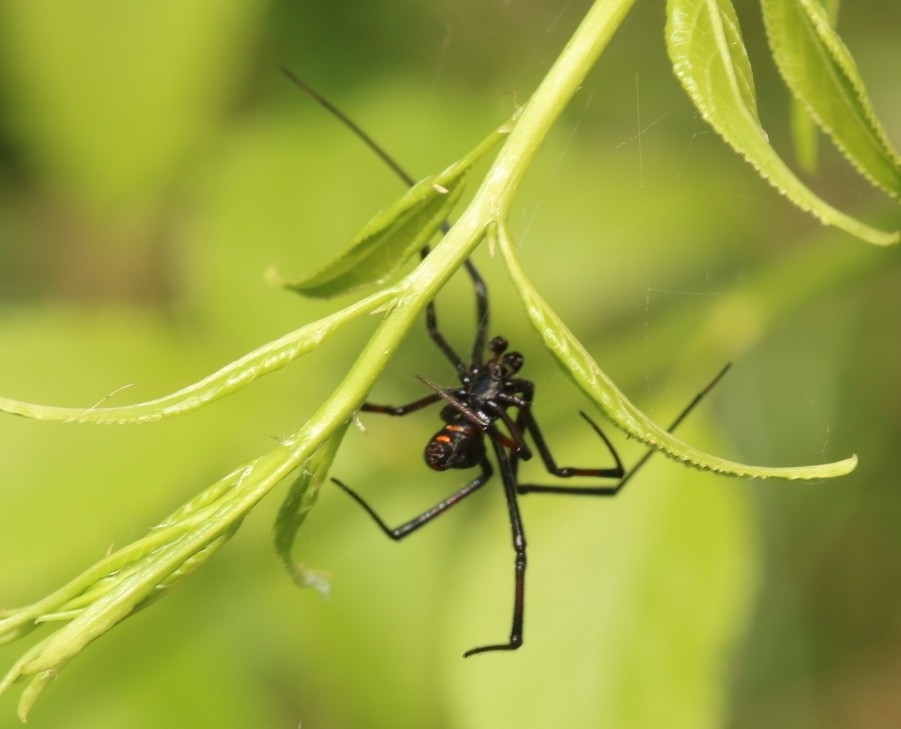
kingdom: Animalia
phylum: Arthropoda
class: Arachnida
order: Araneae
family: Theridiidae
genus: Latrodectus
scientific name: Latrodectus variolus
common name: Northern black widow
